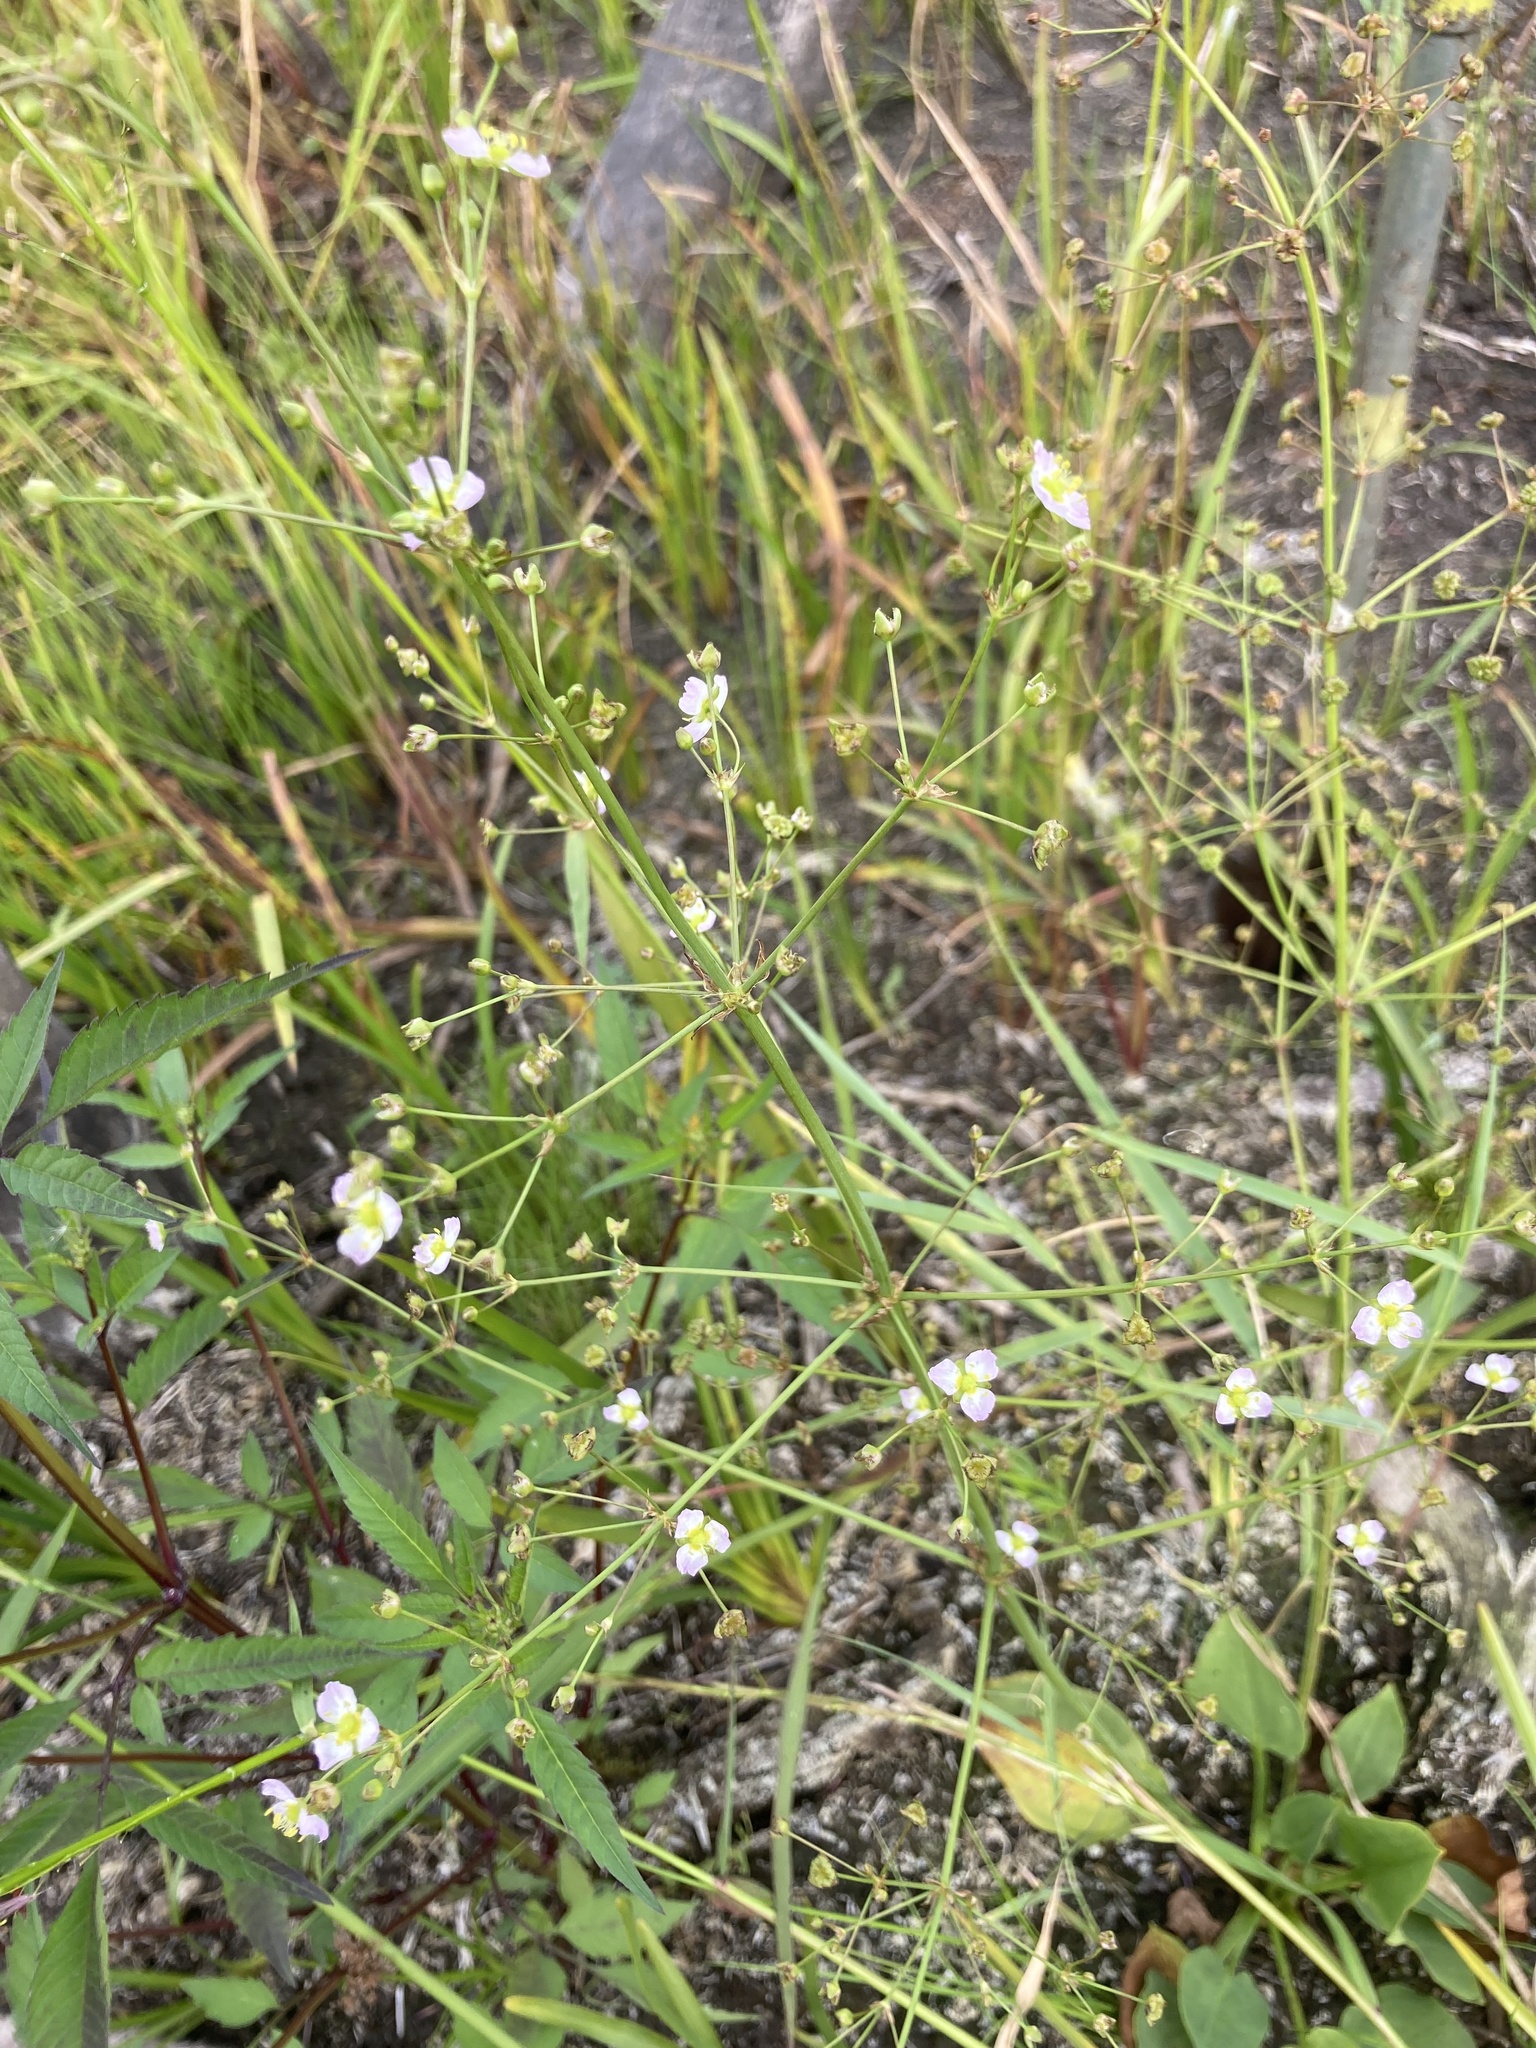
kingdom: Plantae
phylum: Tracheophyta
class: Liliopsida
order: Alismatales
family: Alismataceae
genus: Alisma
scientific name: Alisma plantago-aquatica
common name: Water-plantain
